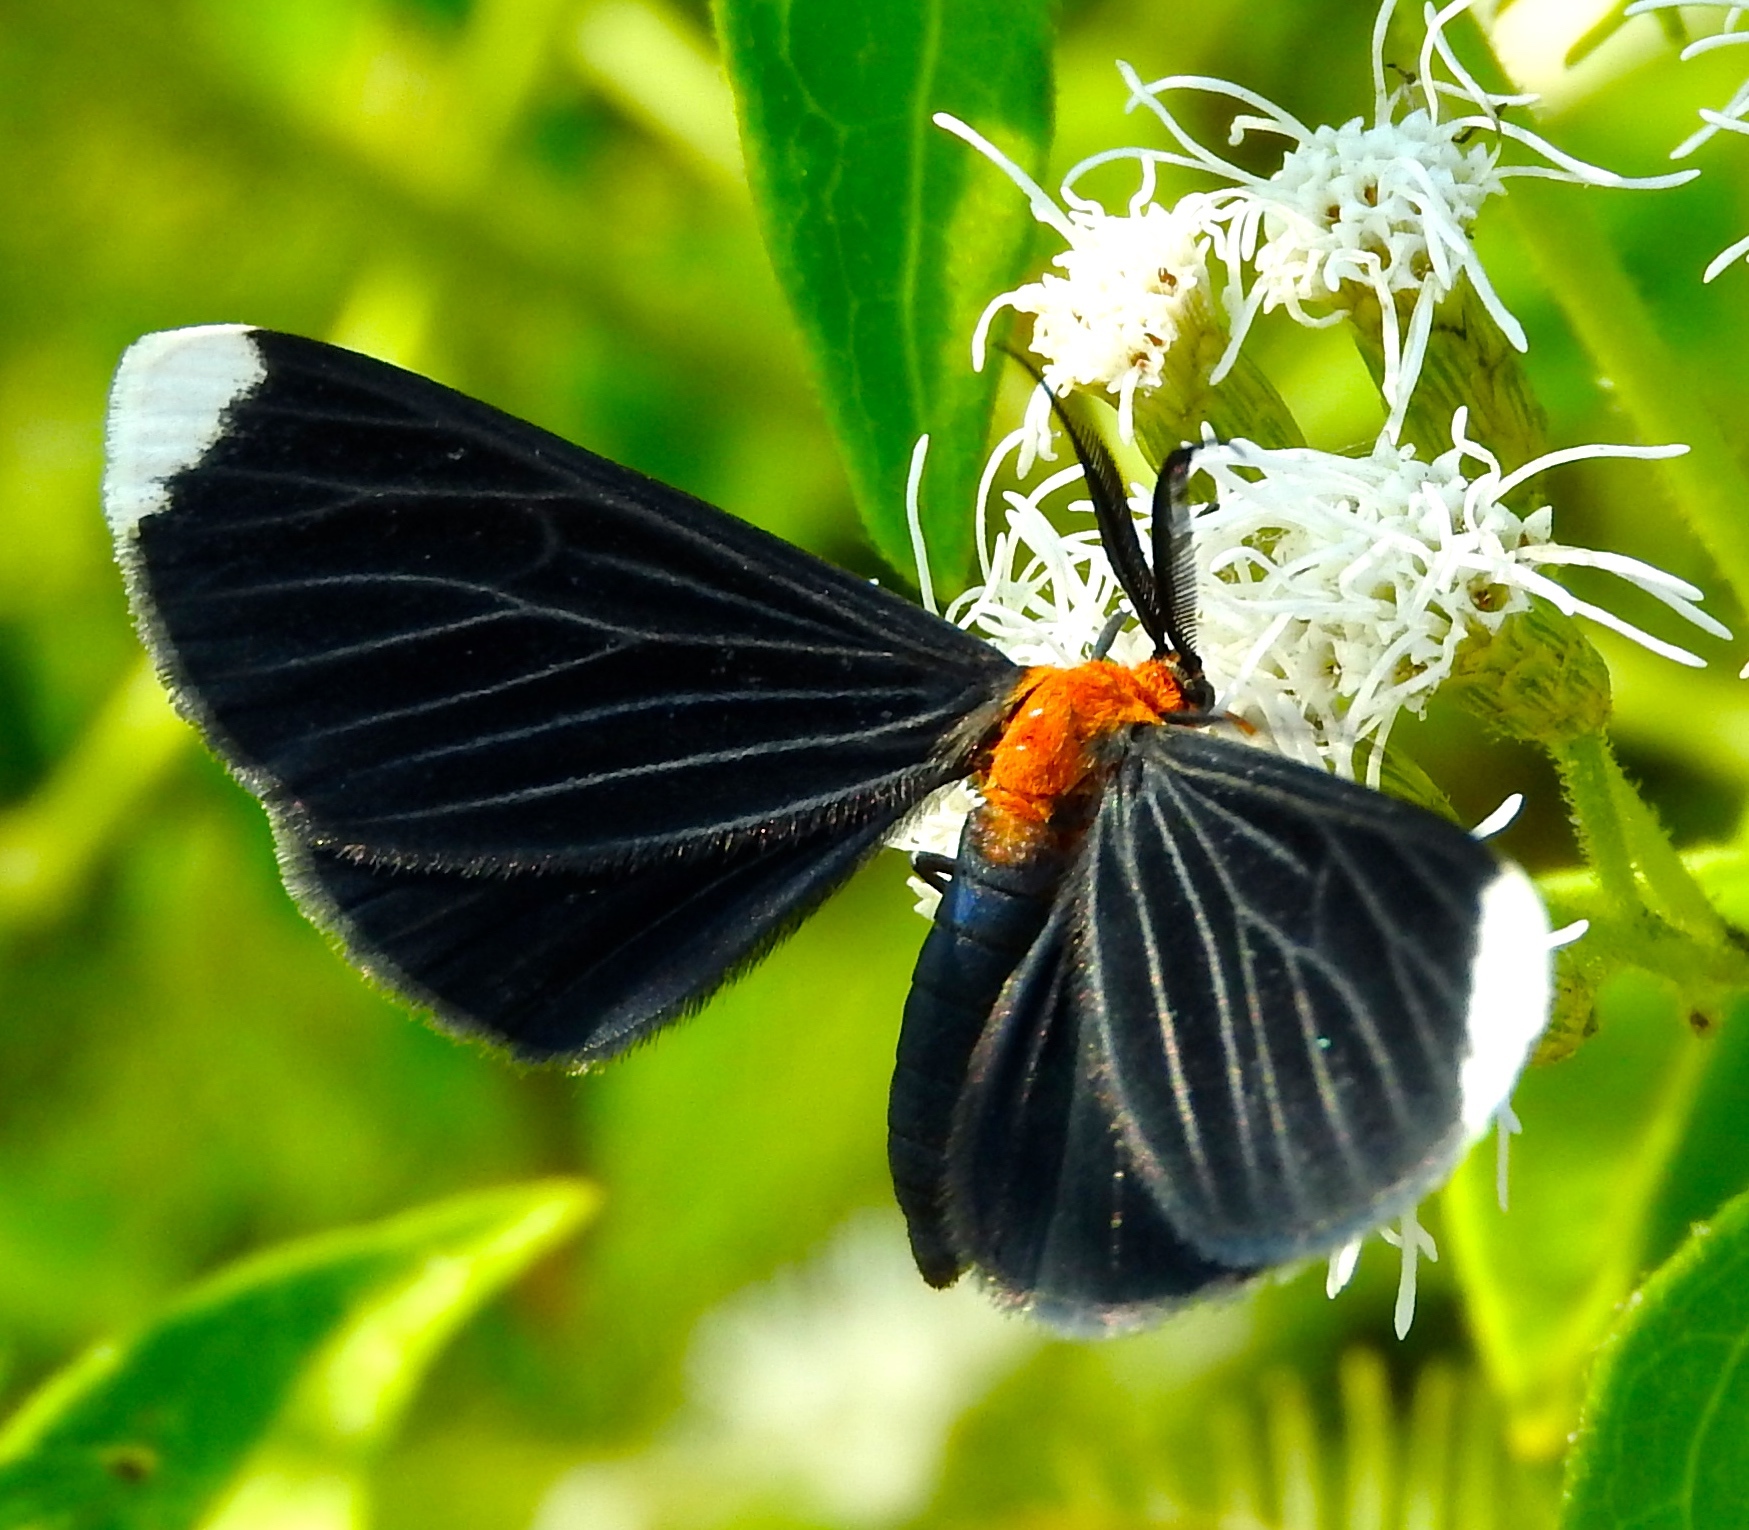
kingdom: Animalia
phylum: Arthropoda
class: Insecta
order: Lepidoptera
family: Geometridae
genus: Melanchroia
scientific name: Melanchroia chephise
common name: White-tipped black
